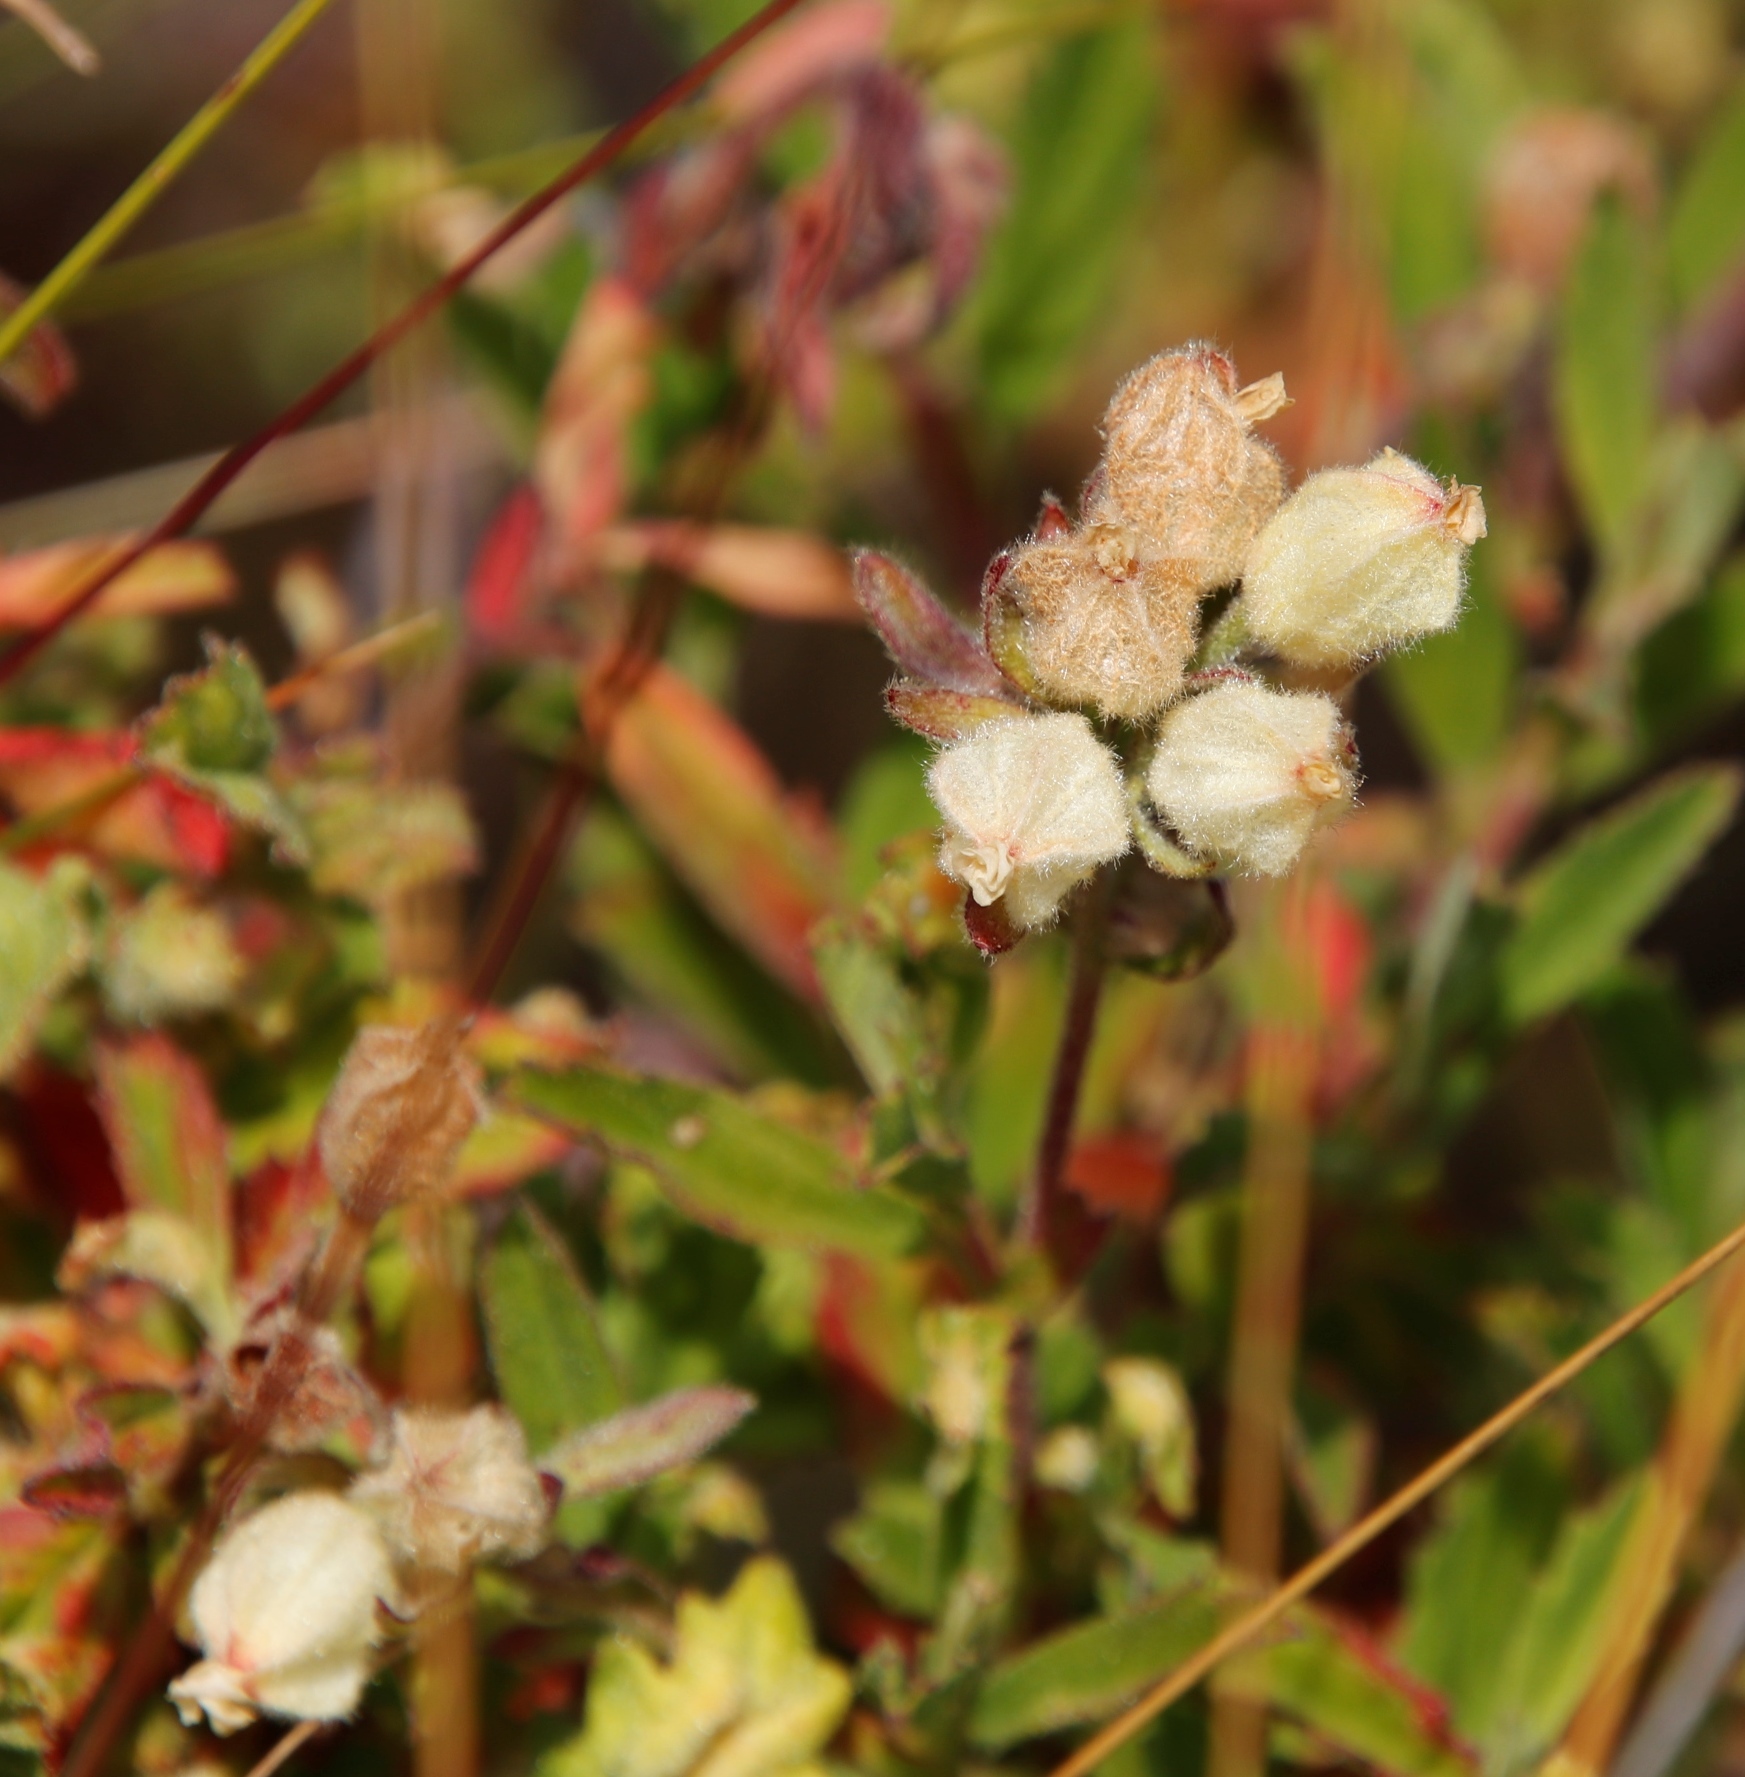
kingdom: Plantae
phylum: Tracheophyta
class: Magnoliopsida
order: Malvales
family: Malvaceae
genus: Hermannia
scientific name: Hermannia hyssopifolia
